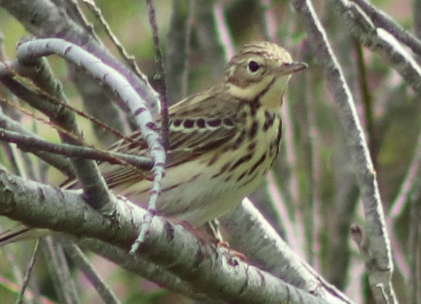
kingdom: Animalia
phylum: Chordata
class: Aves
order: Passeriformes
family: Motacillidae
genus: Anthus
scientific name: Anthus trivialis
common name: Tree pipit
